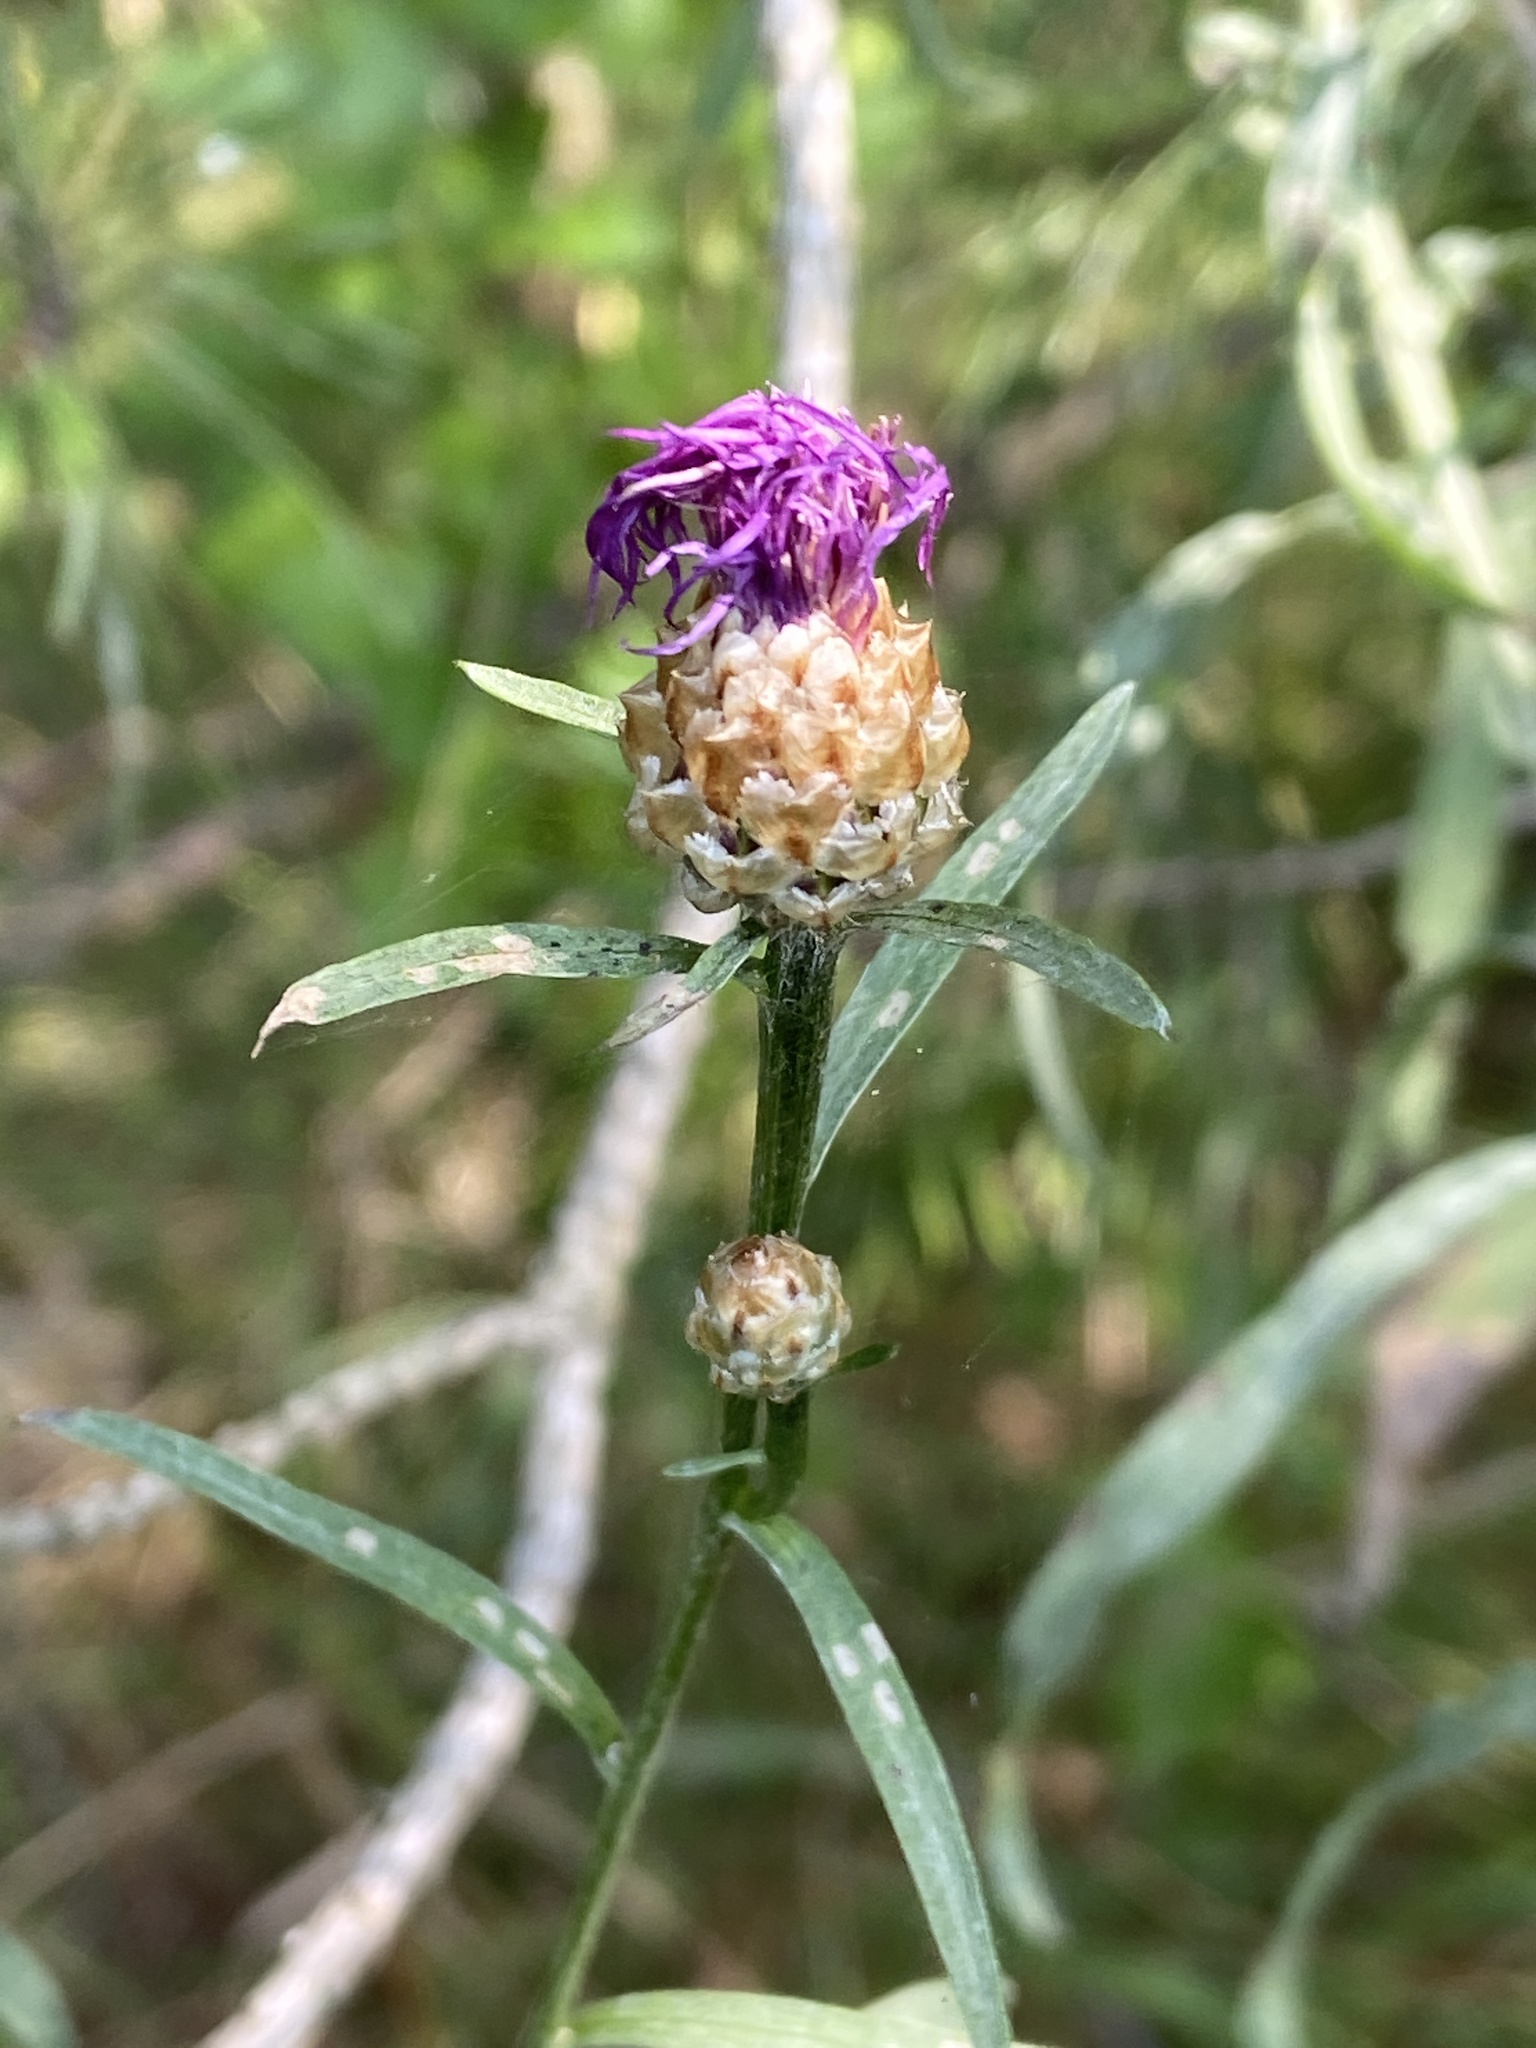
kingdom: Plantae
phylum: Tracheophyta
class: Magnoliopsida
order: Asterales
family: Asteraceae
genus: Centaurea
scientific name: Centaurea jacea
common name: Brown knapweed
